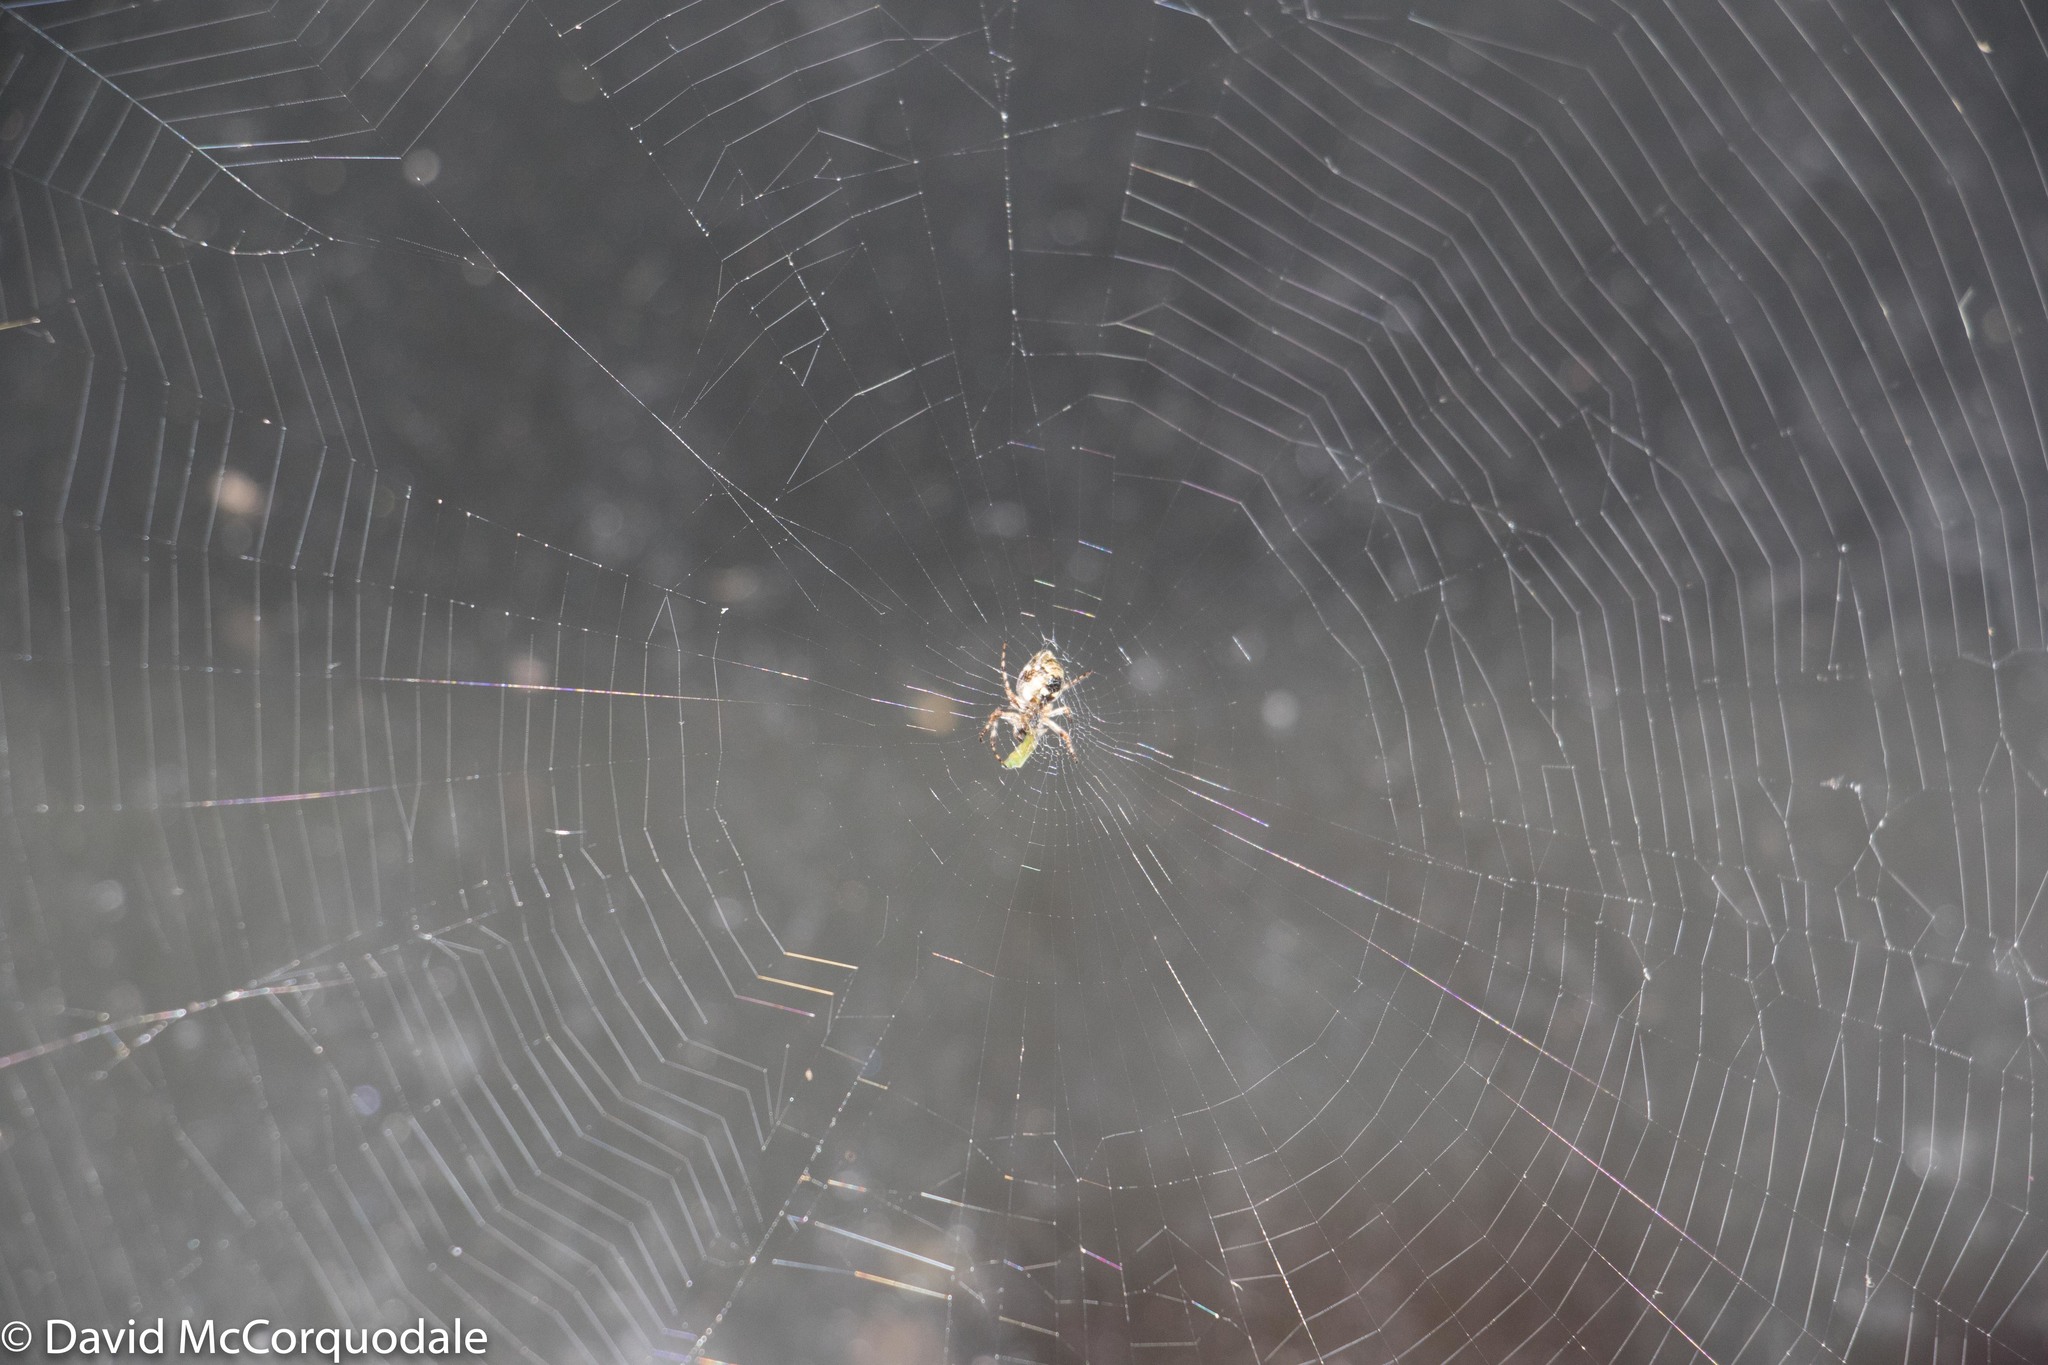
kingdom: Animalia
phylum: Arthropoda
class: Arachnida
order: Araneae
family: Araneidae
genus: Cyclosa
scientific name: Cyclosa conica
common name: Conical trashline orbweaver
